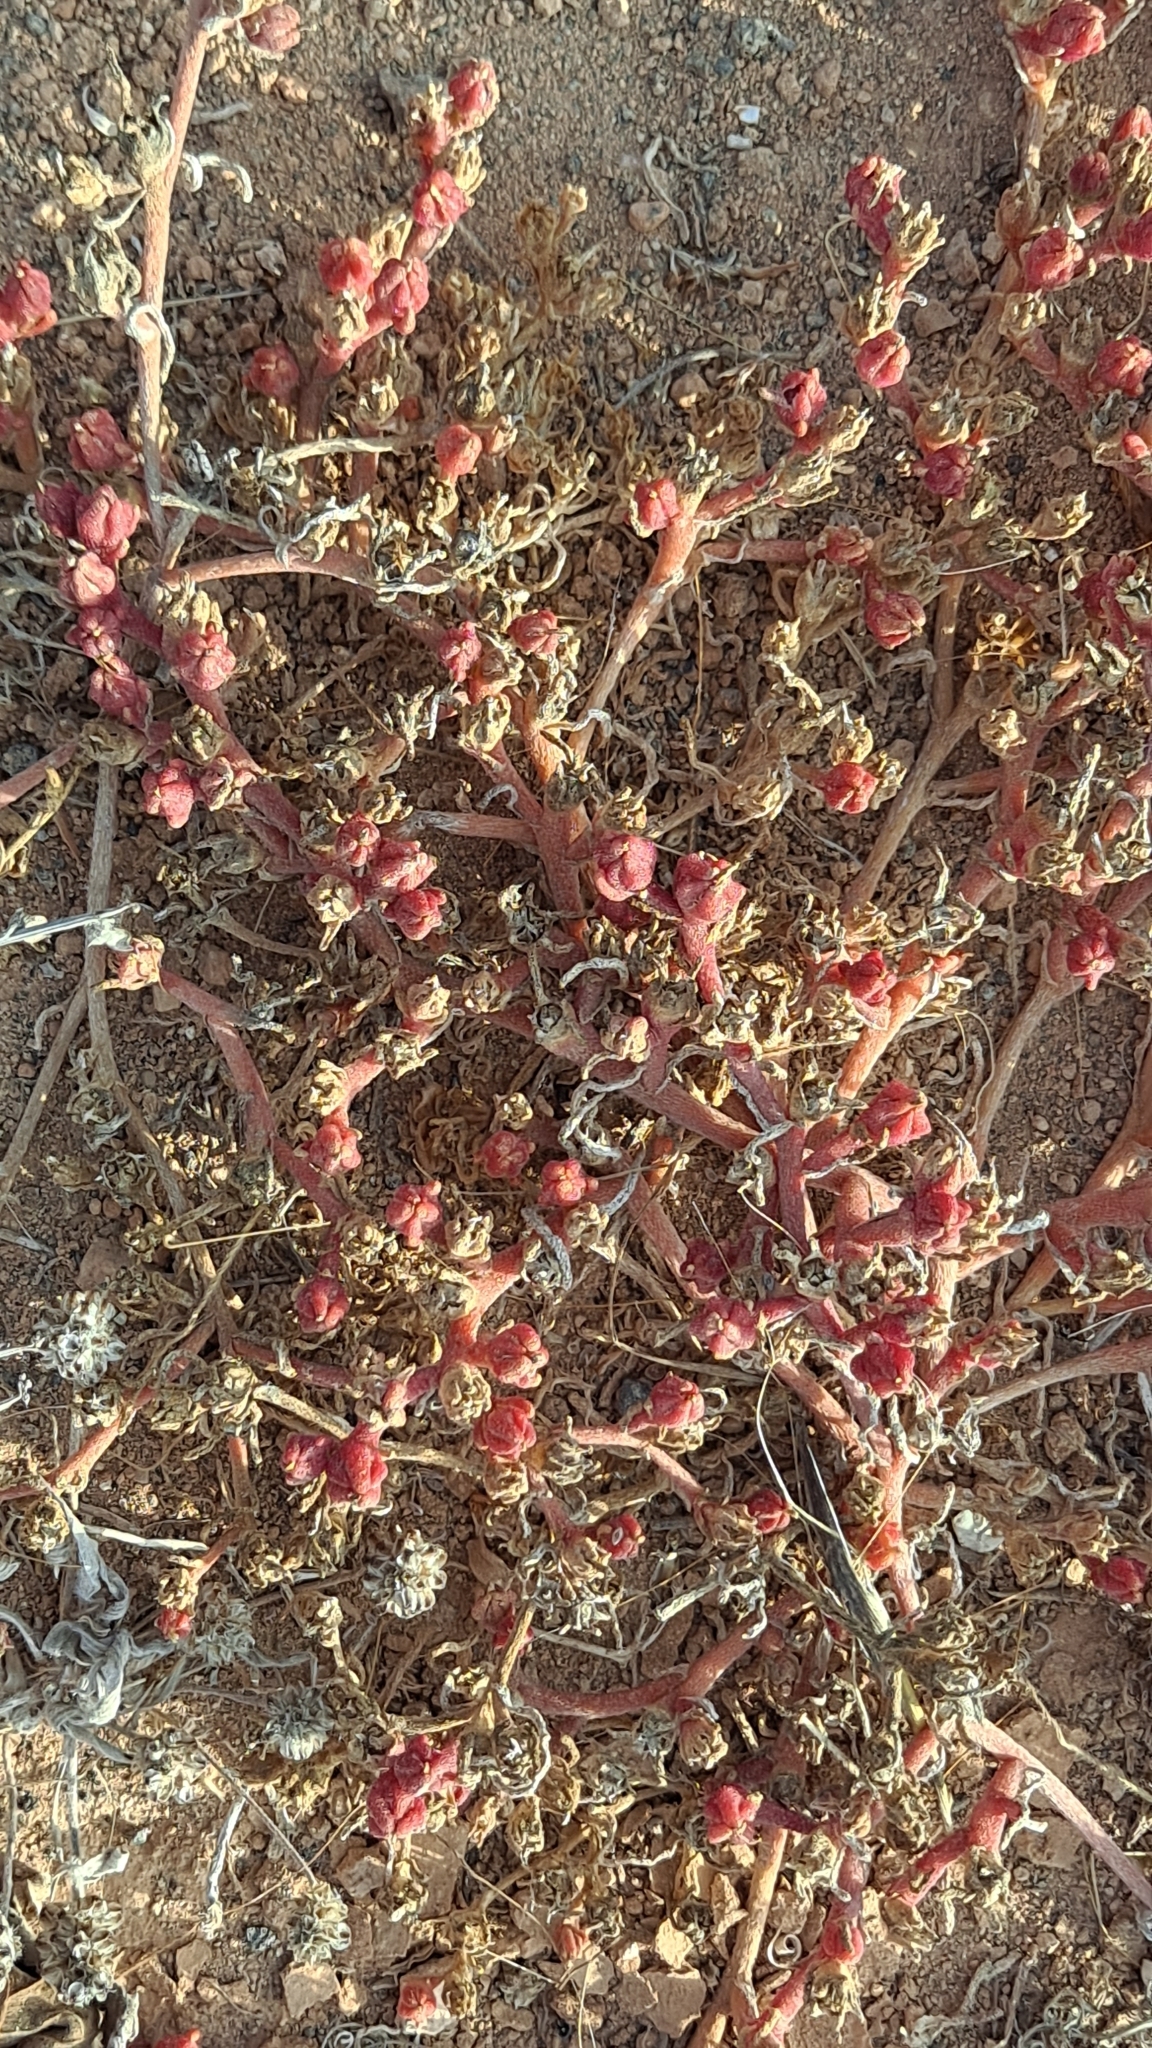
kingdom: Plantae
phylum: Tracheophyta
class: Magnoliopsida
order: Caryophyllales
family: Aizoaceae
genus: Mesembryanthemum
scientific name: Mesembryanthemum nodiflorum
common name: Slenderleaf iceplant
